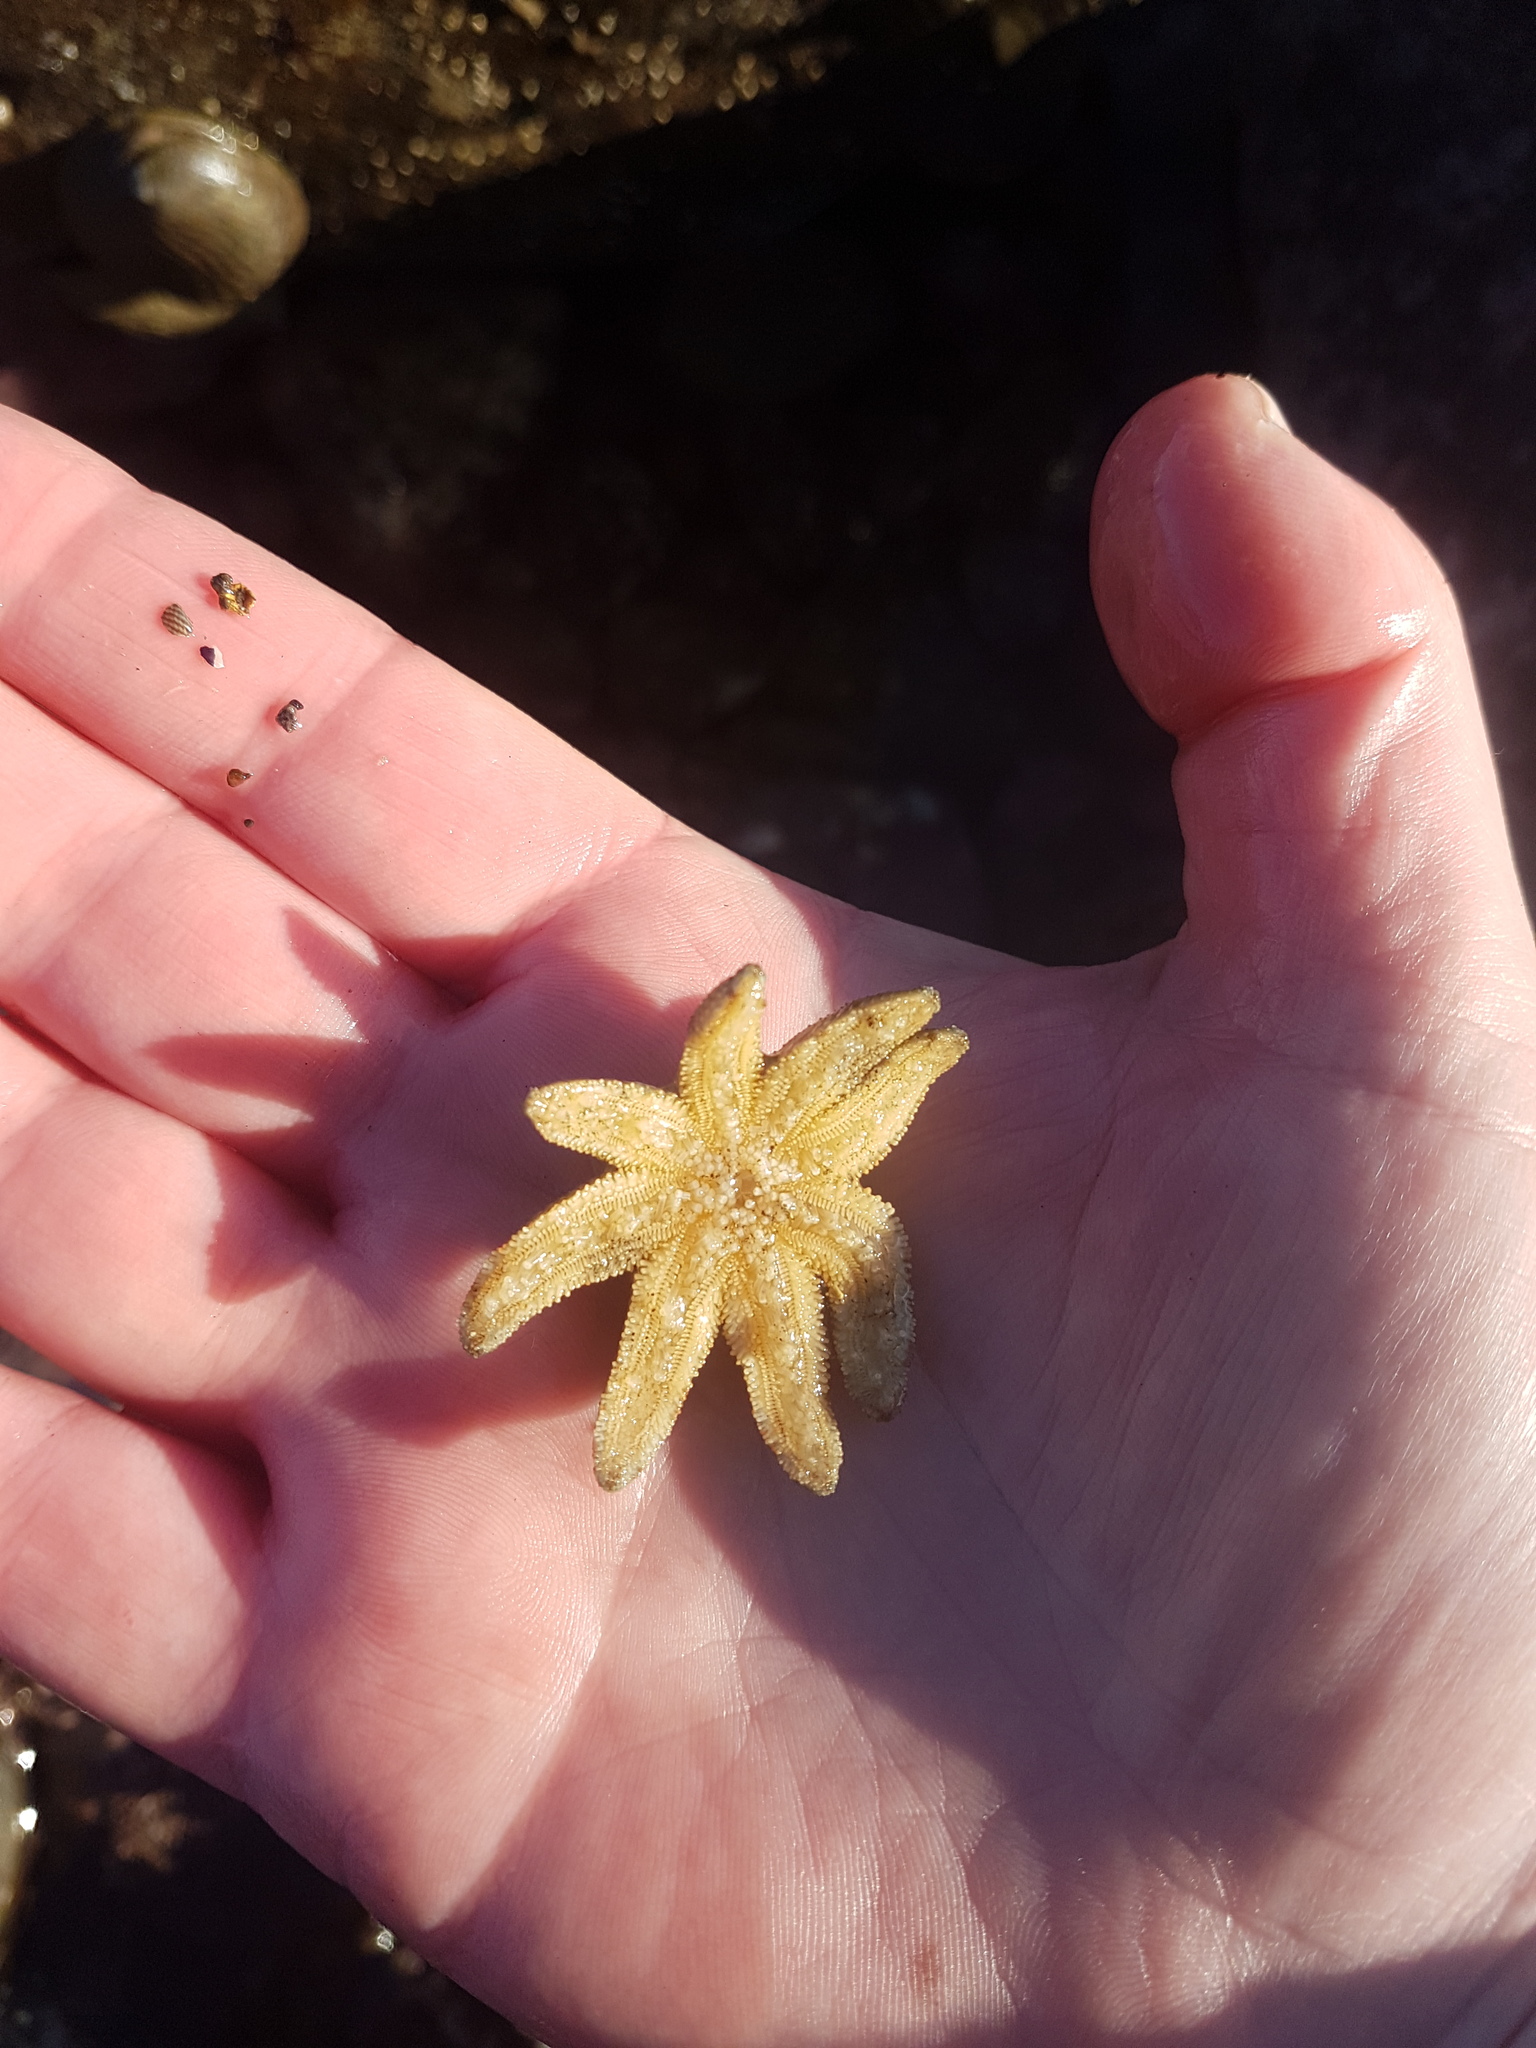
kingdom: Animalia
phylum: Echinodermata
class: Asteroidea
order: Forcipulatida
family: Stichasteridae
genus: Allostichaster
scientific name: Allostichaster polyplax
